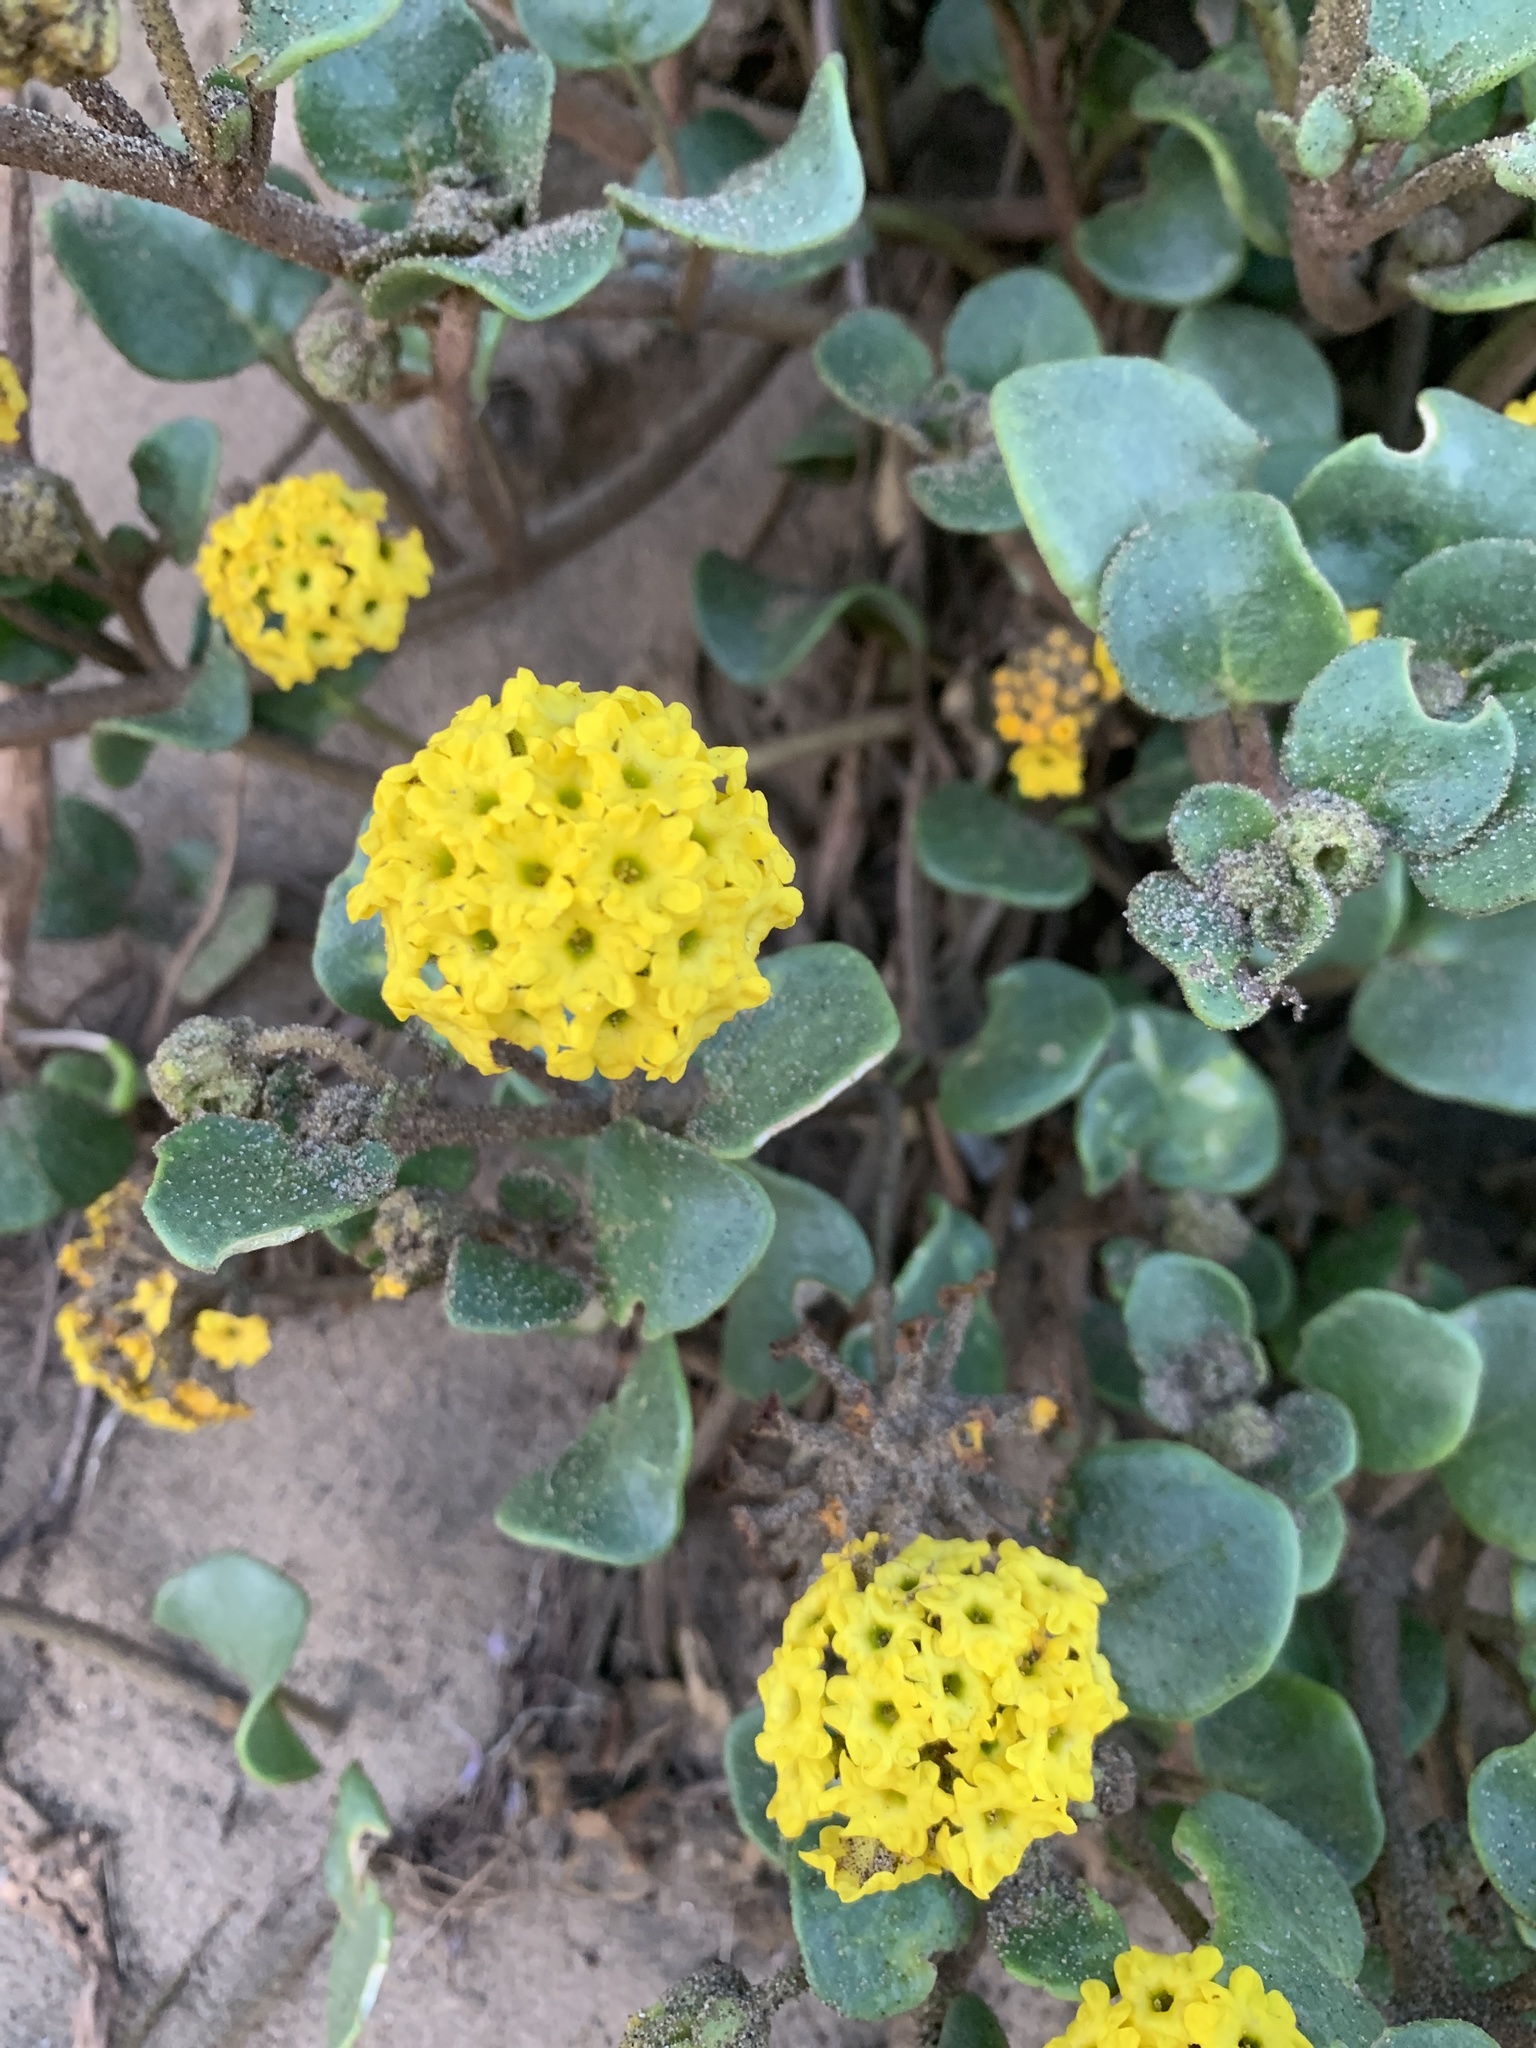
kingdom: Plantae
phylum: Tracheophyta
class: Magnoliopsida
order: Caryophyllales
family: Nyctaginaceae
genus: Abronia
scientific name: Abronia latifolia
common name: Yellow sand-verbena
